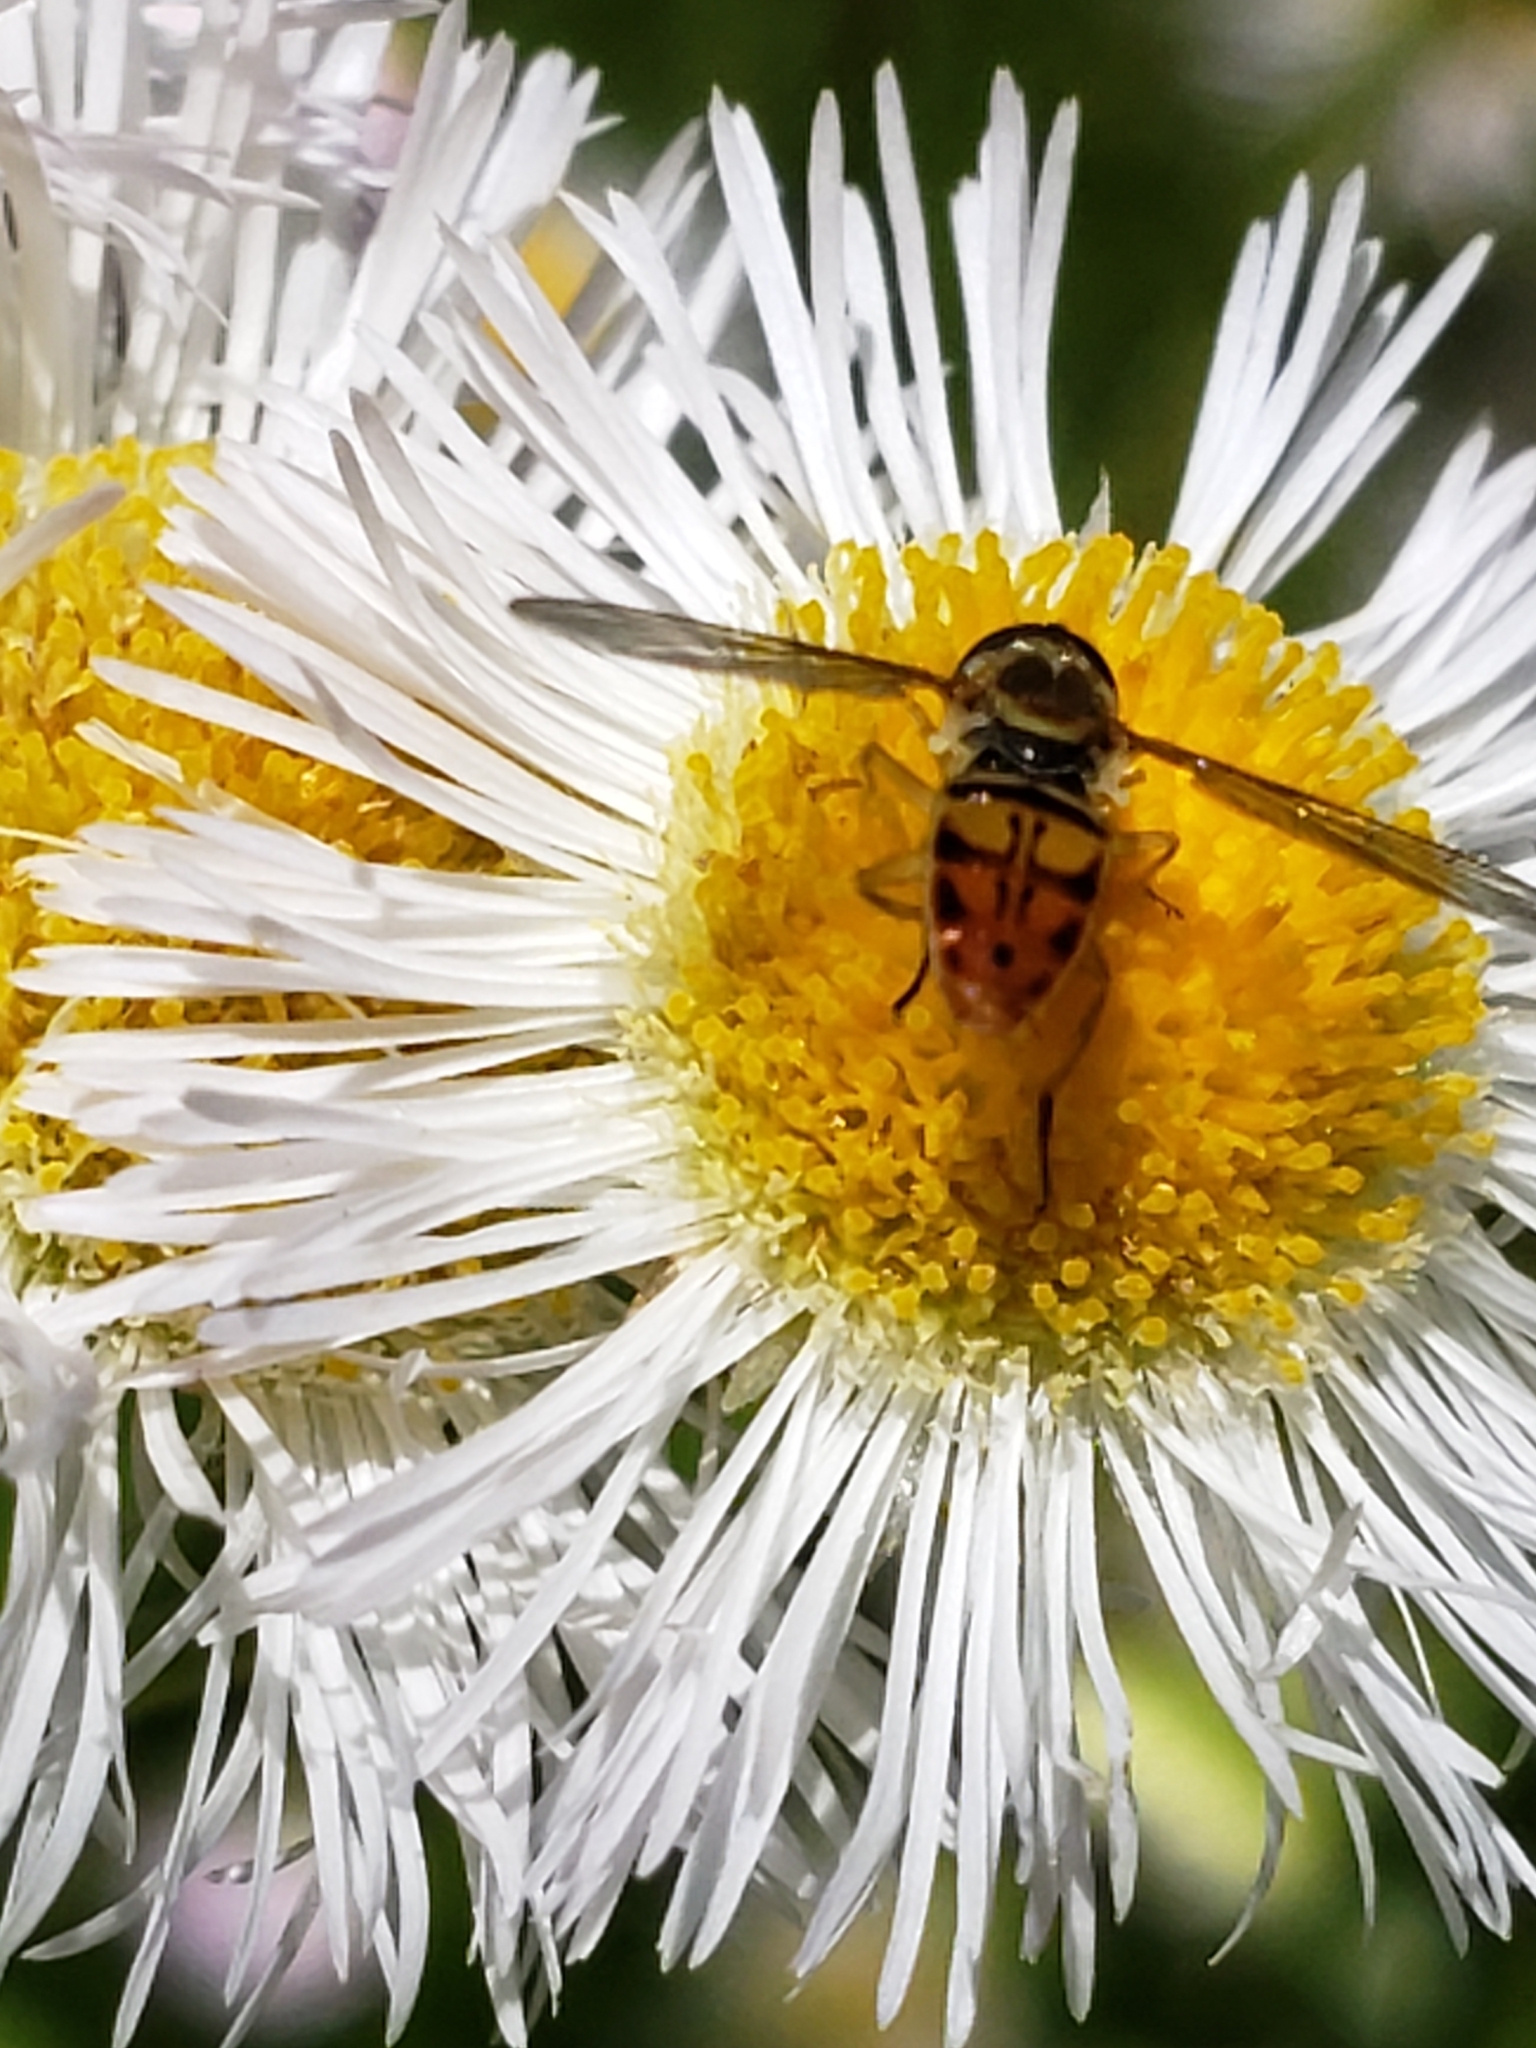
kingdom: Animalia
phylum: Arthropoda
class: Insecta
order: Diptera
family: Syrphidae
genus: Toxomerus
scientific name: Toxomerus marginatus
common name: Syrphid fly
